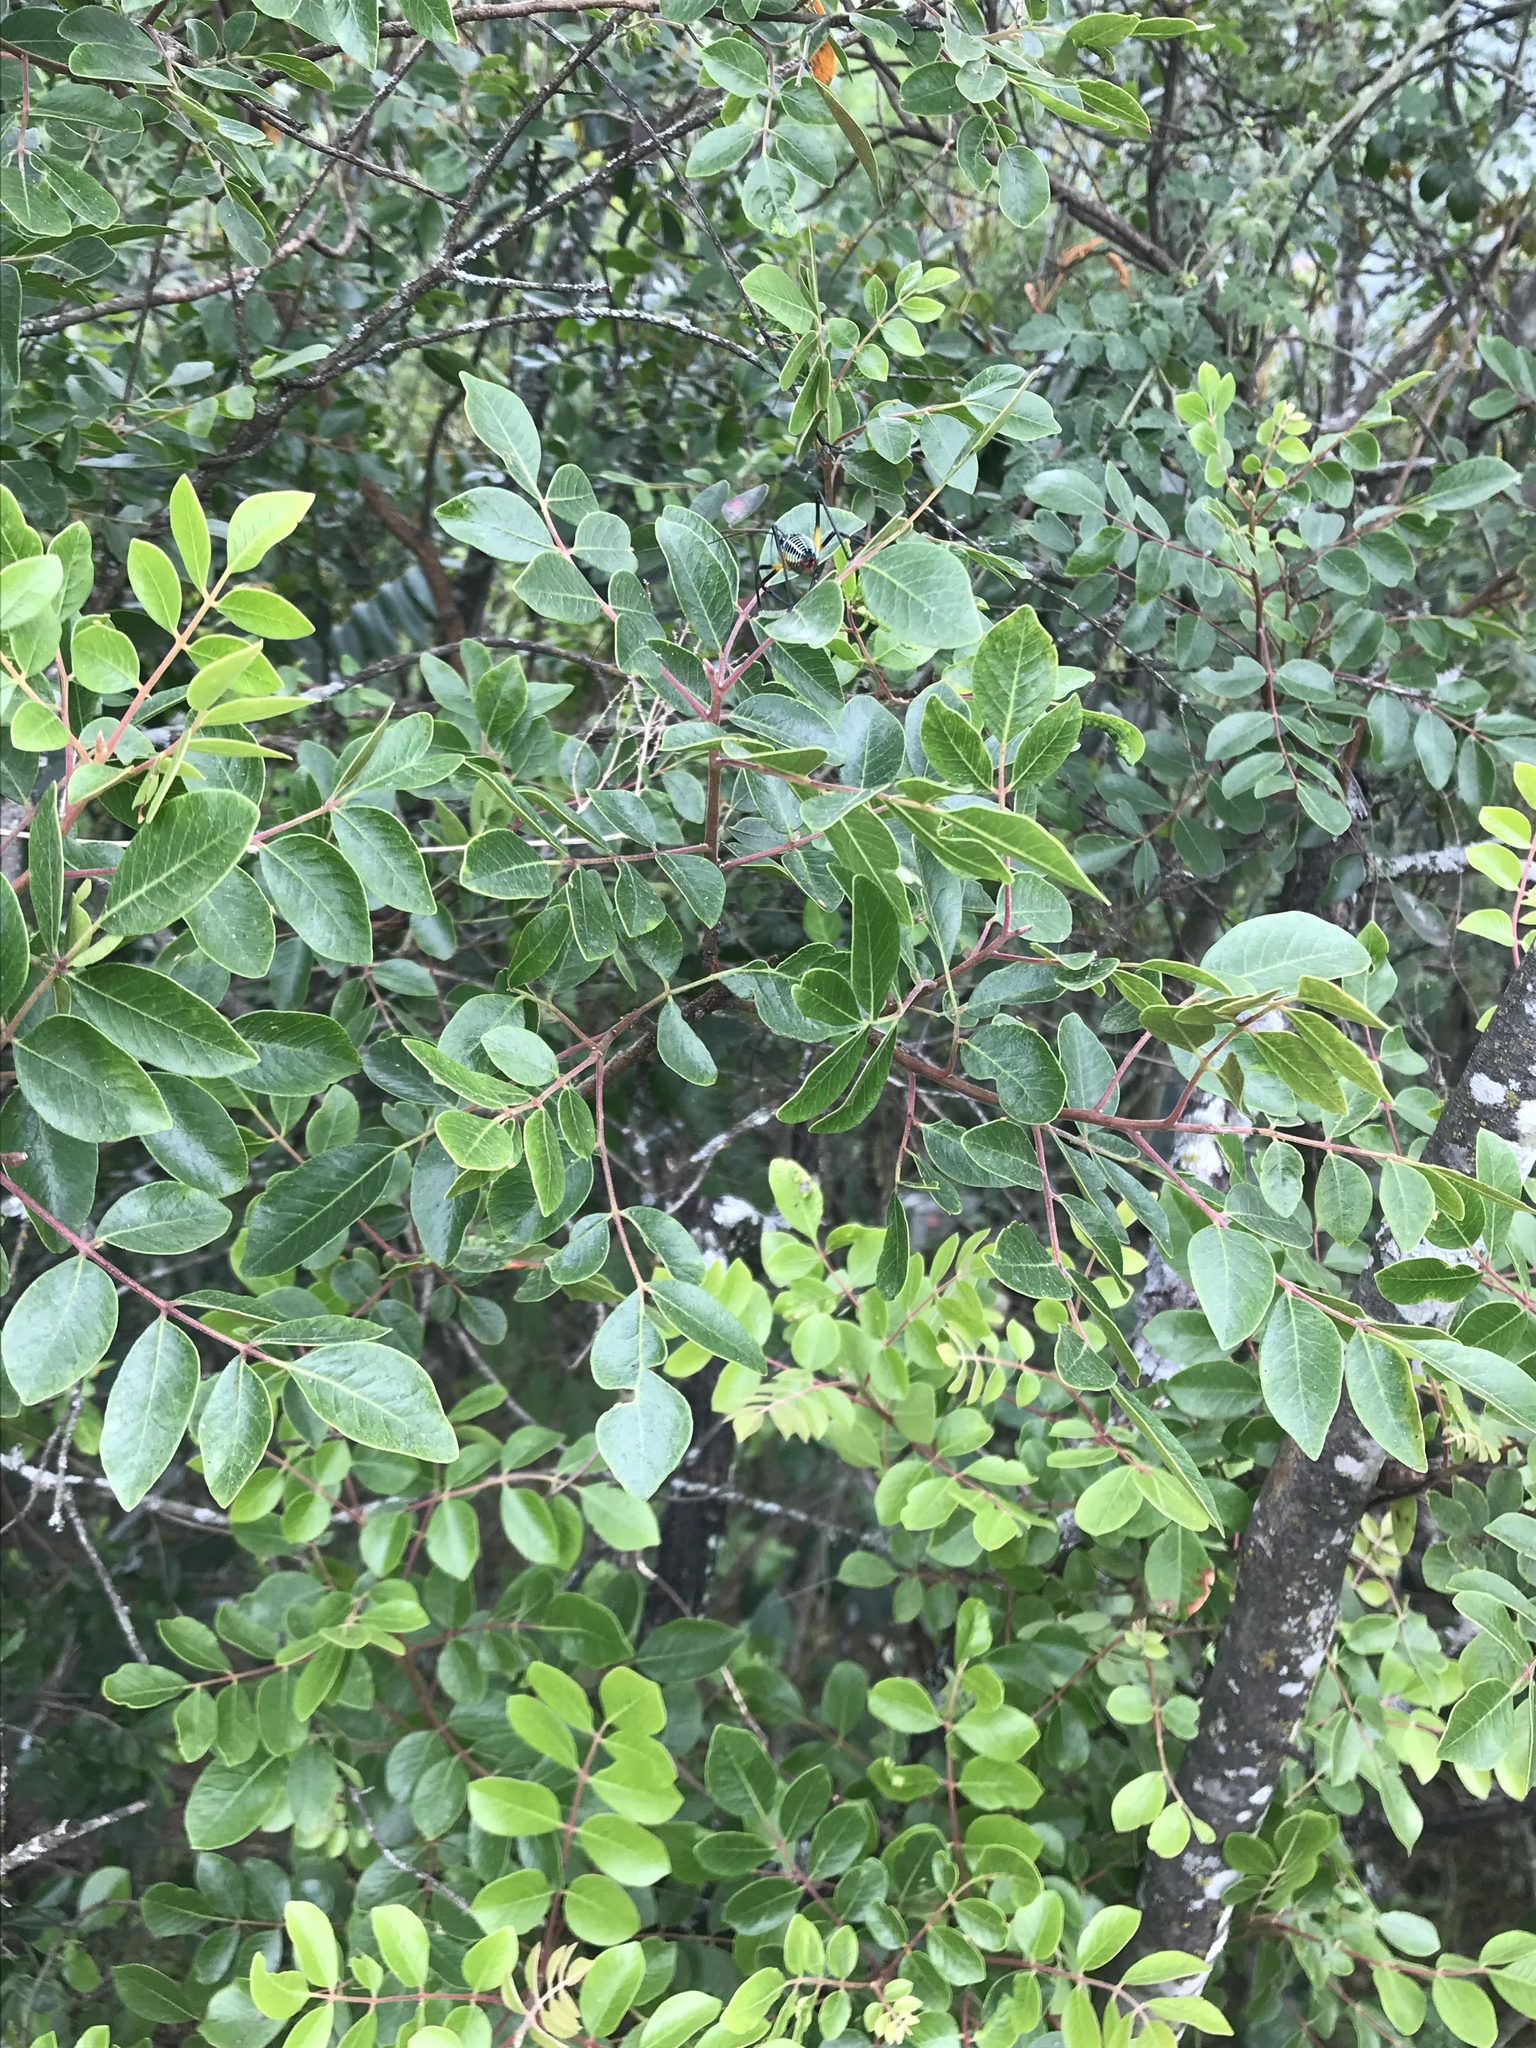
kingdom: Plantae
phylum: Tracheophyta
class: Magnoliopsida
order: Sapindales
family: Anacardiaceae
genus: Rhus
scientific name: Rhus virens
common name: Evergreen sumac
